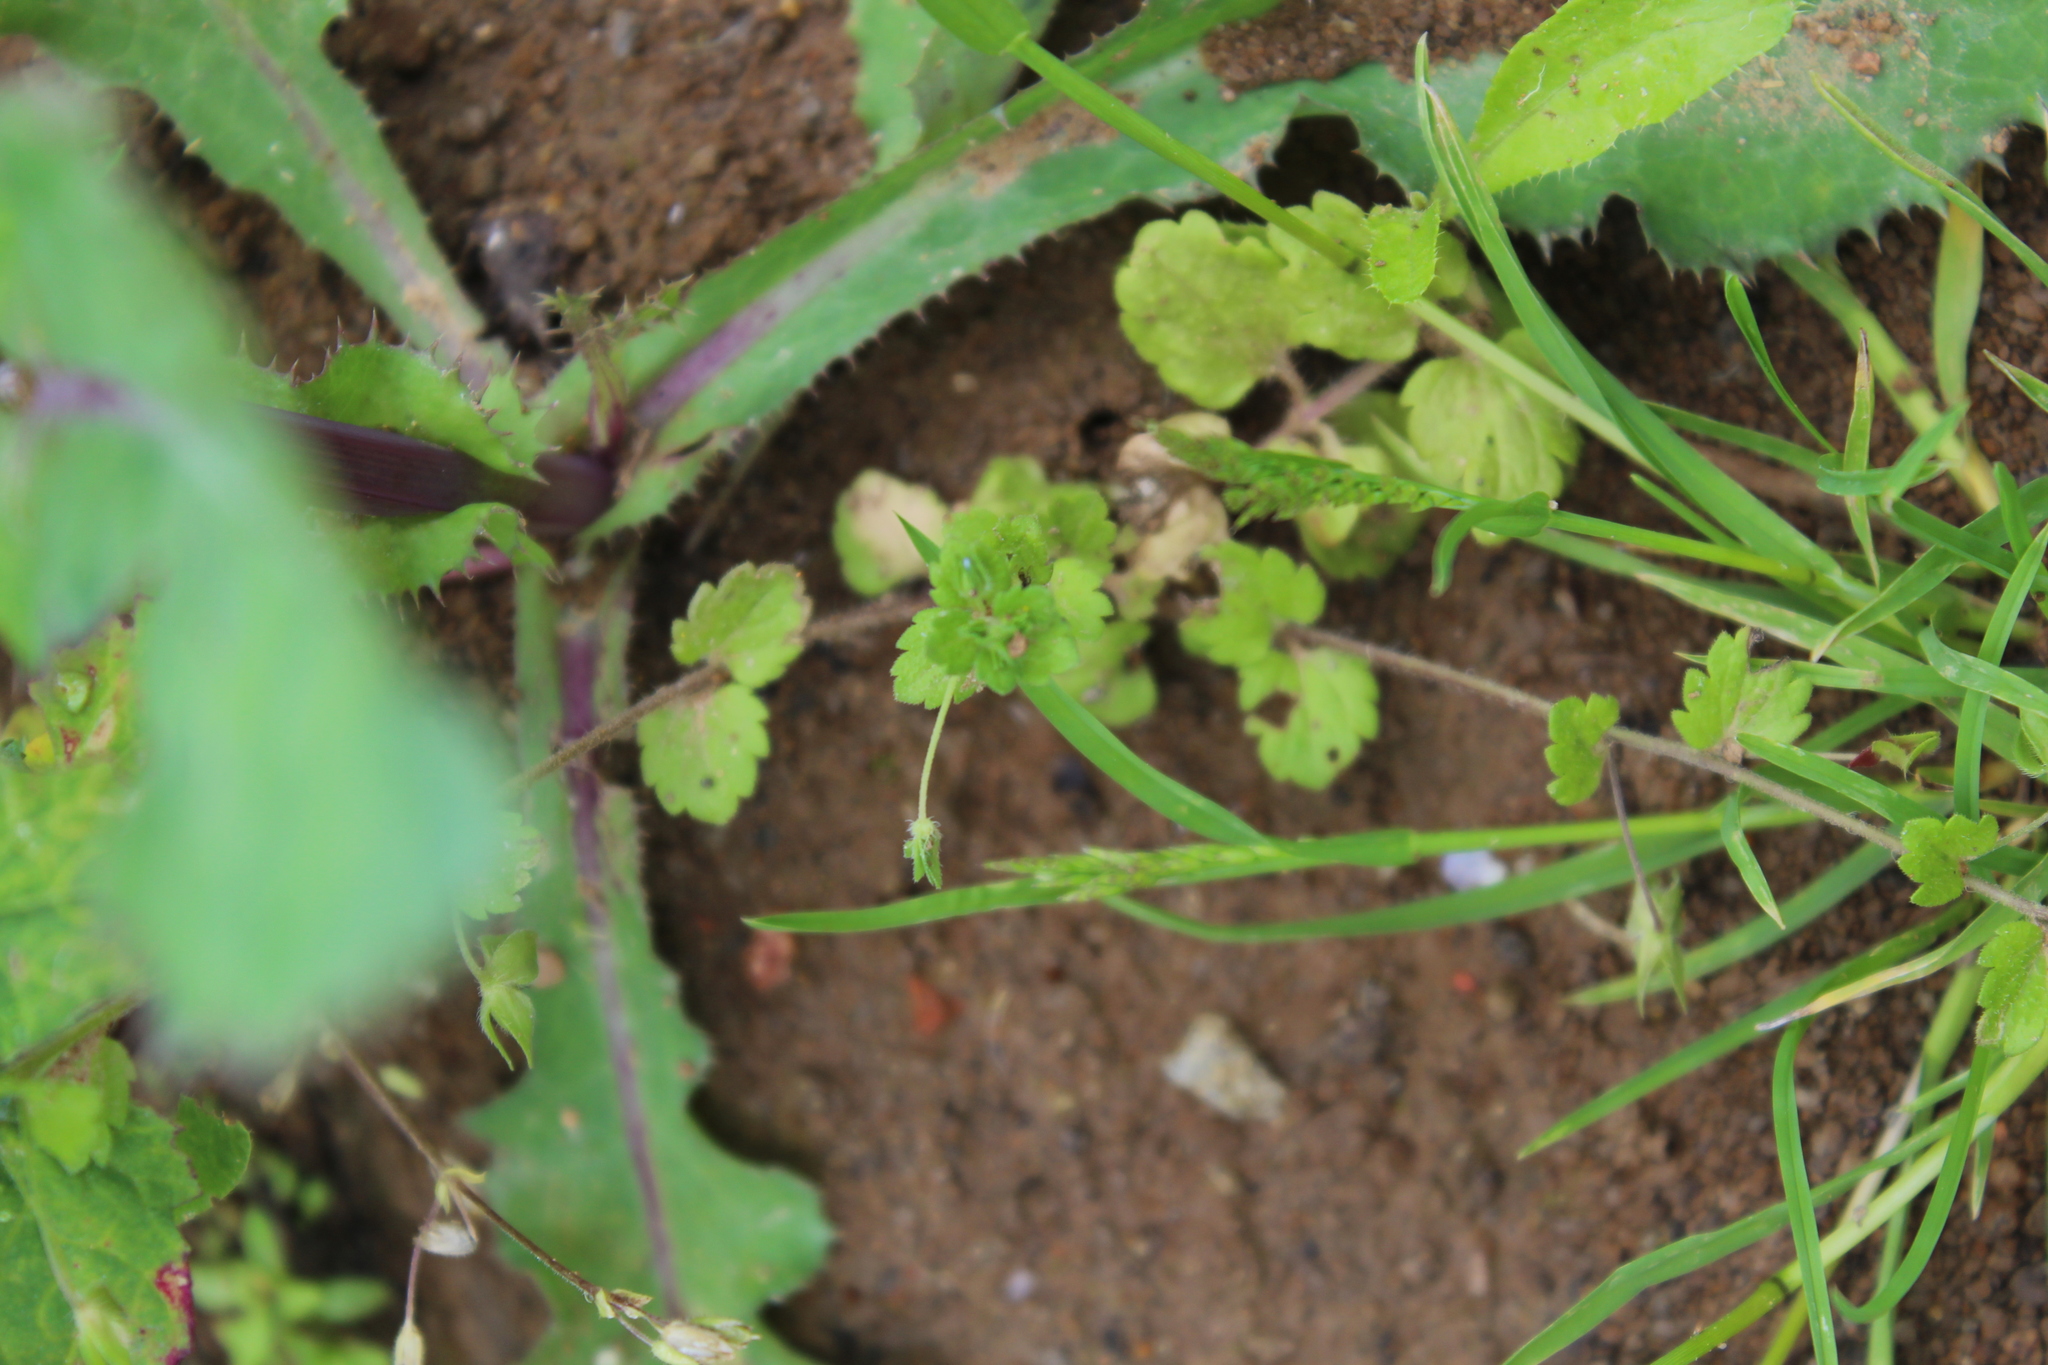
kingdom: Plantae
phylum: Tracheophyta
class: Magnoliopsida
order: Lamiales
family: Plantaginaceae
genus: Veronica
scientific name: Veronica persica
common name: Common field-speedwell
